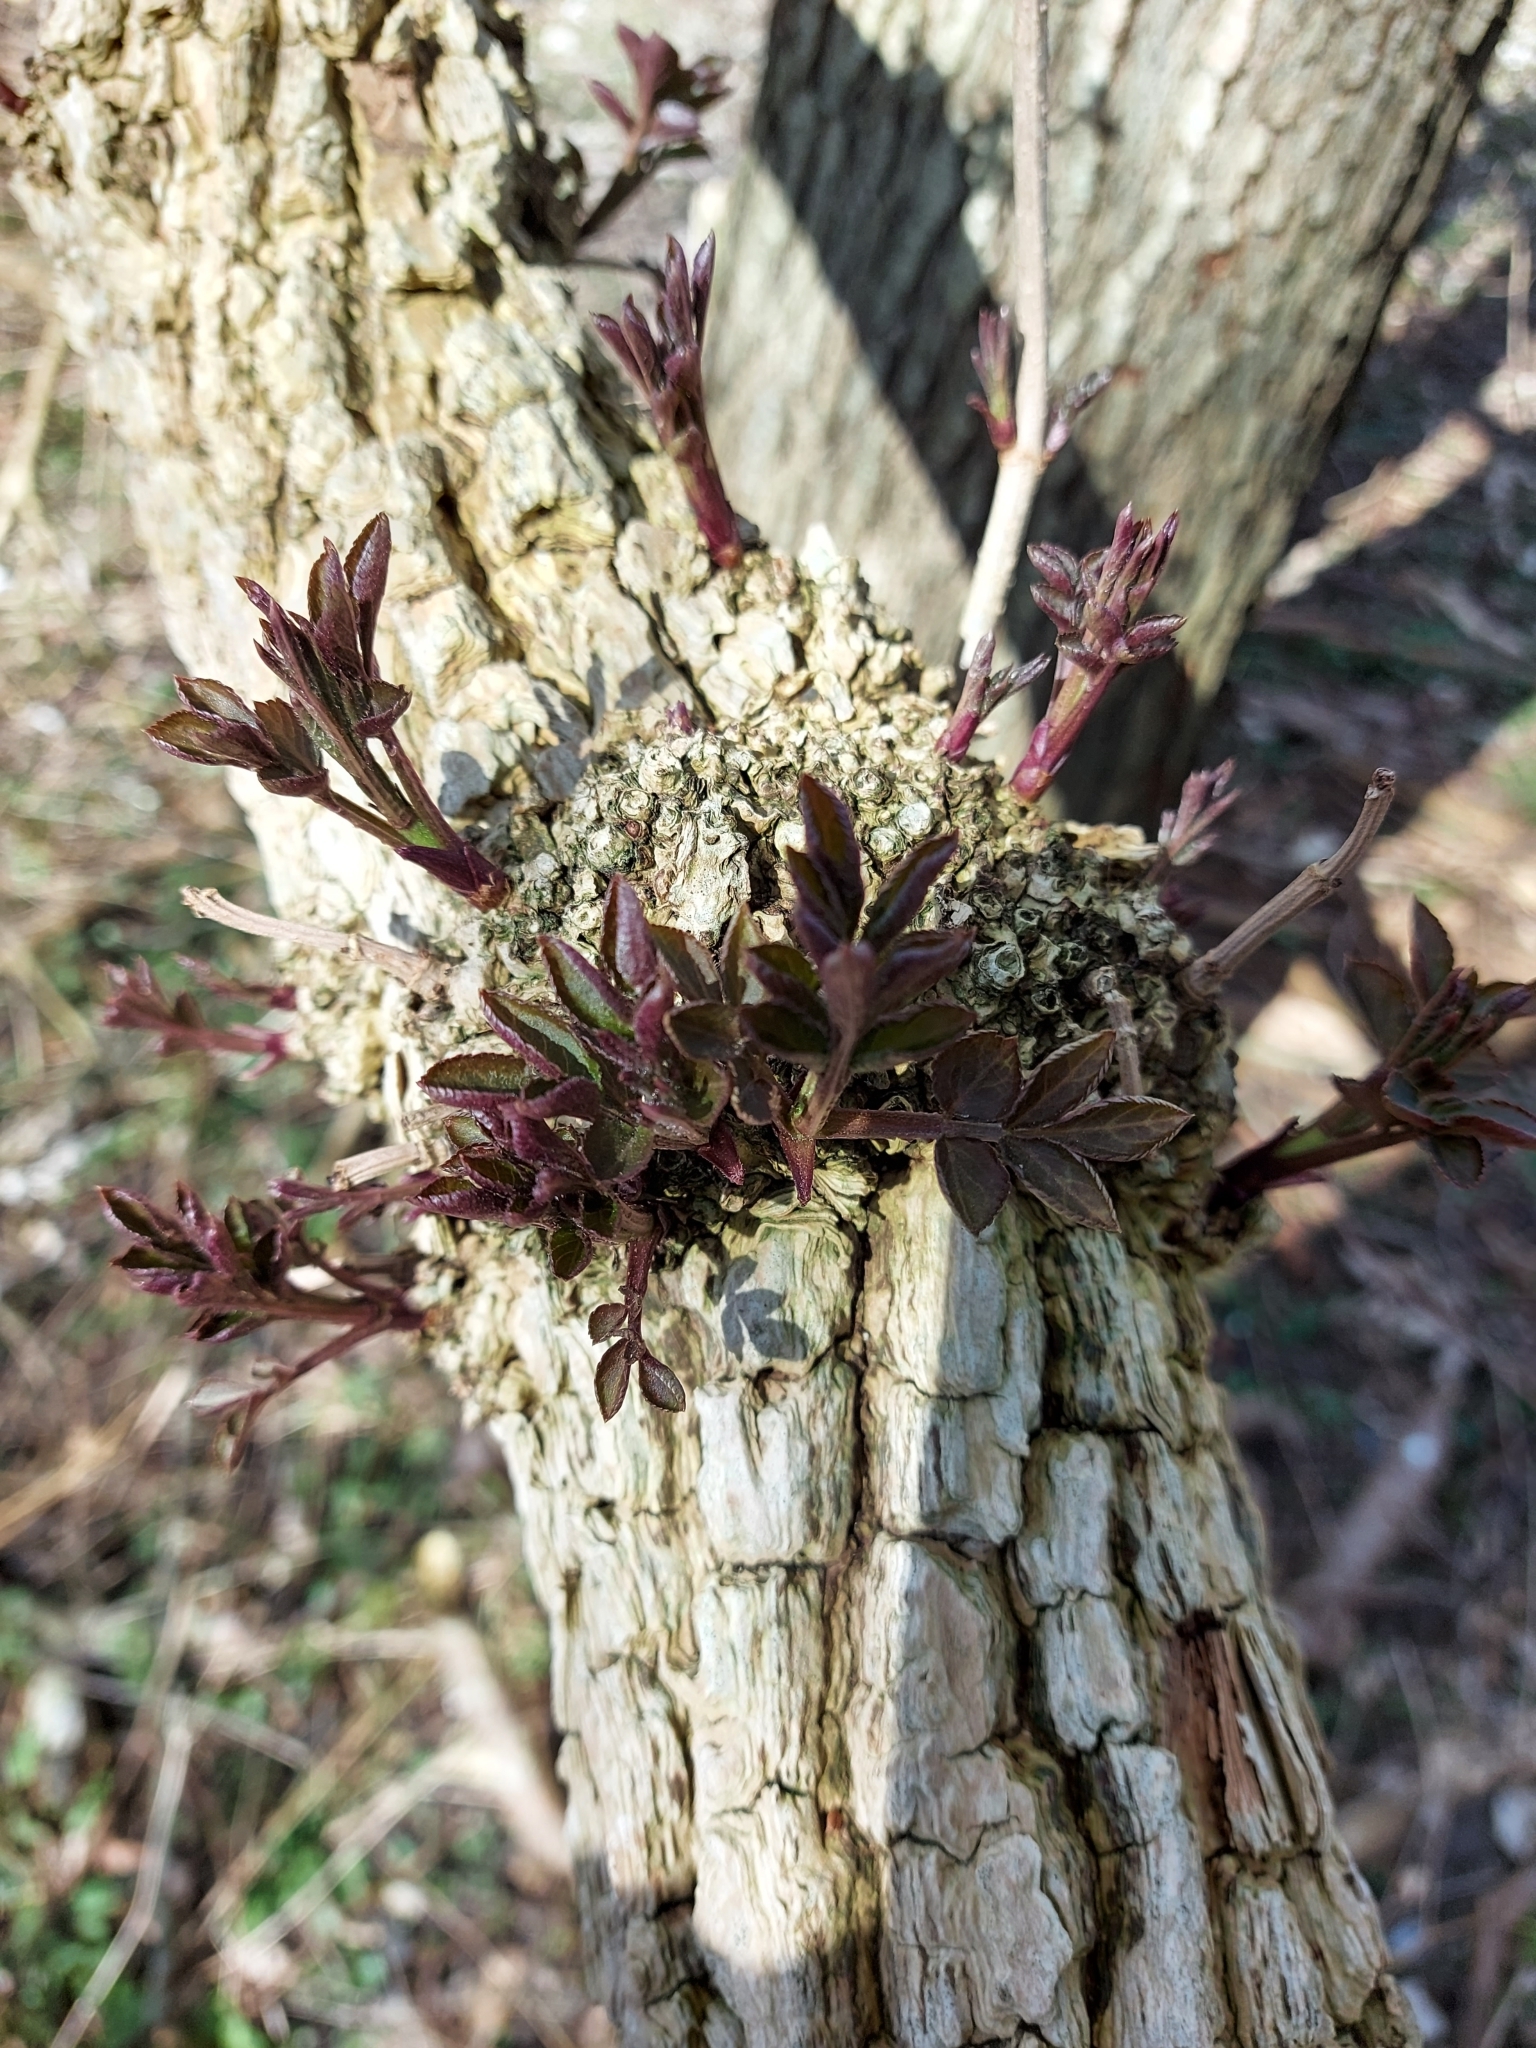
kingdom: Plantae
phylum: Tracheophyta
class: Magnoliopsida
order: Dipsacales
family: Viburnaceae
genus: Sambucus
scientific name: Sambucus nigra
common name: Elder
